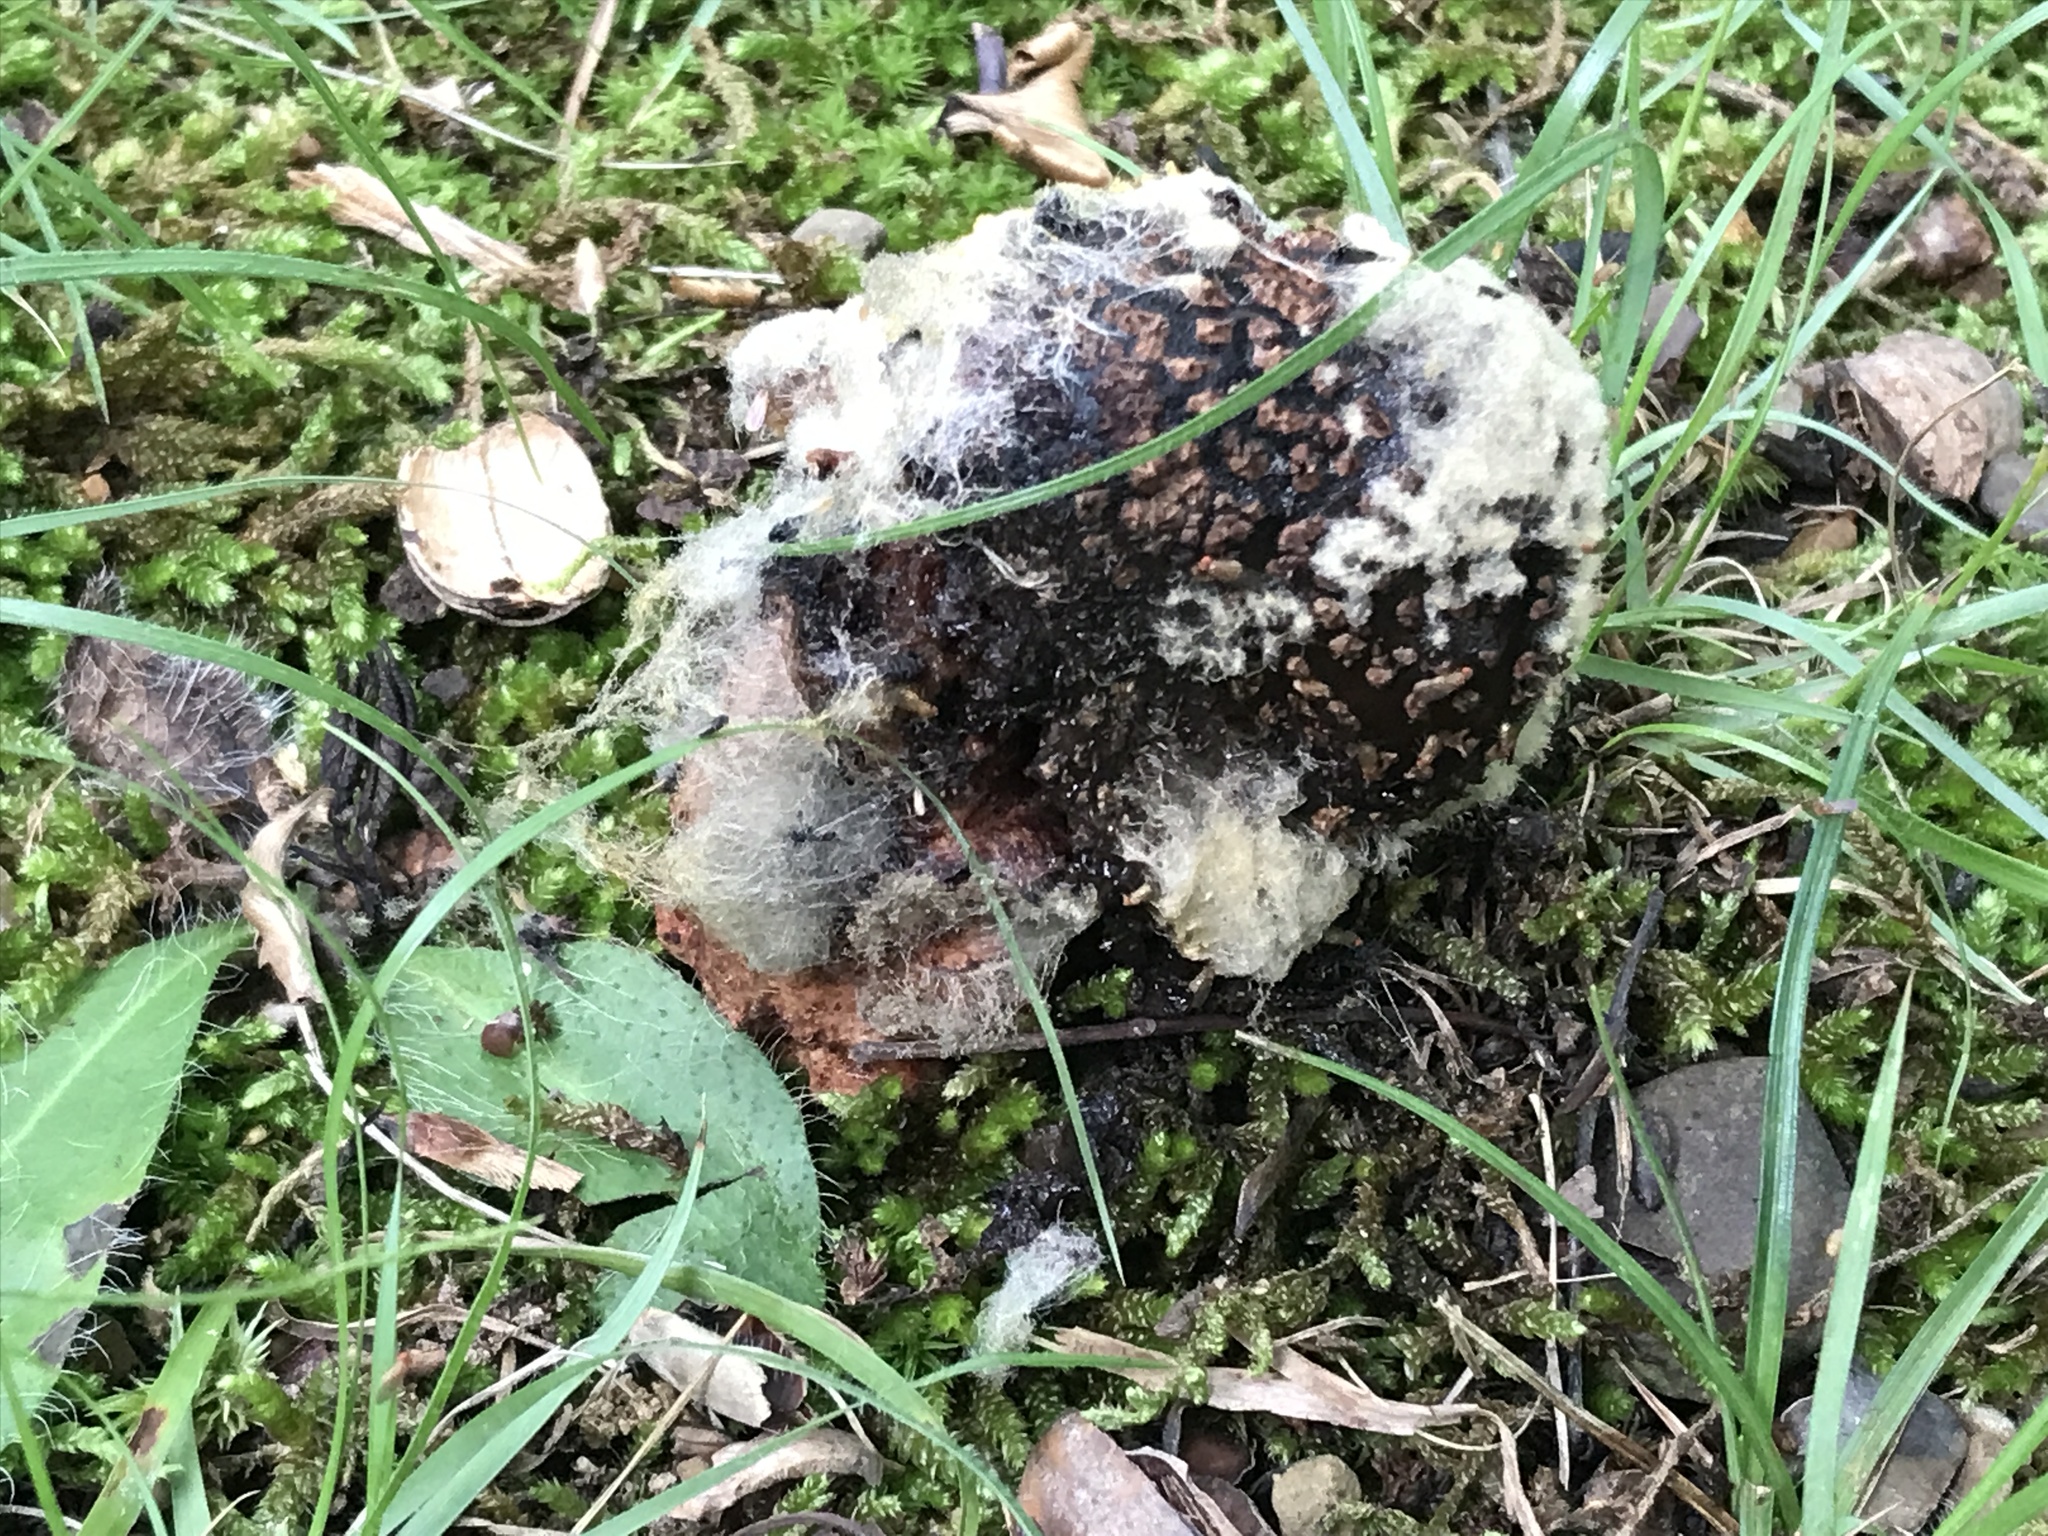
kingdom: Fungi
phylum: Basidiomycota
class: Agaricomycetes
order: Agaricales
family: Amanitaceae
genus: Amanita
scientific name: Amanita flavorubens
